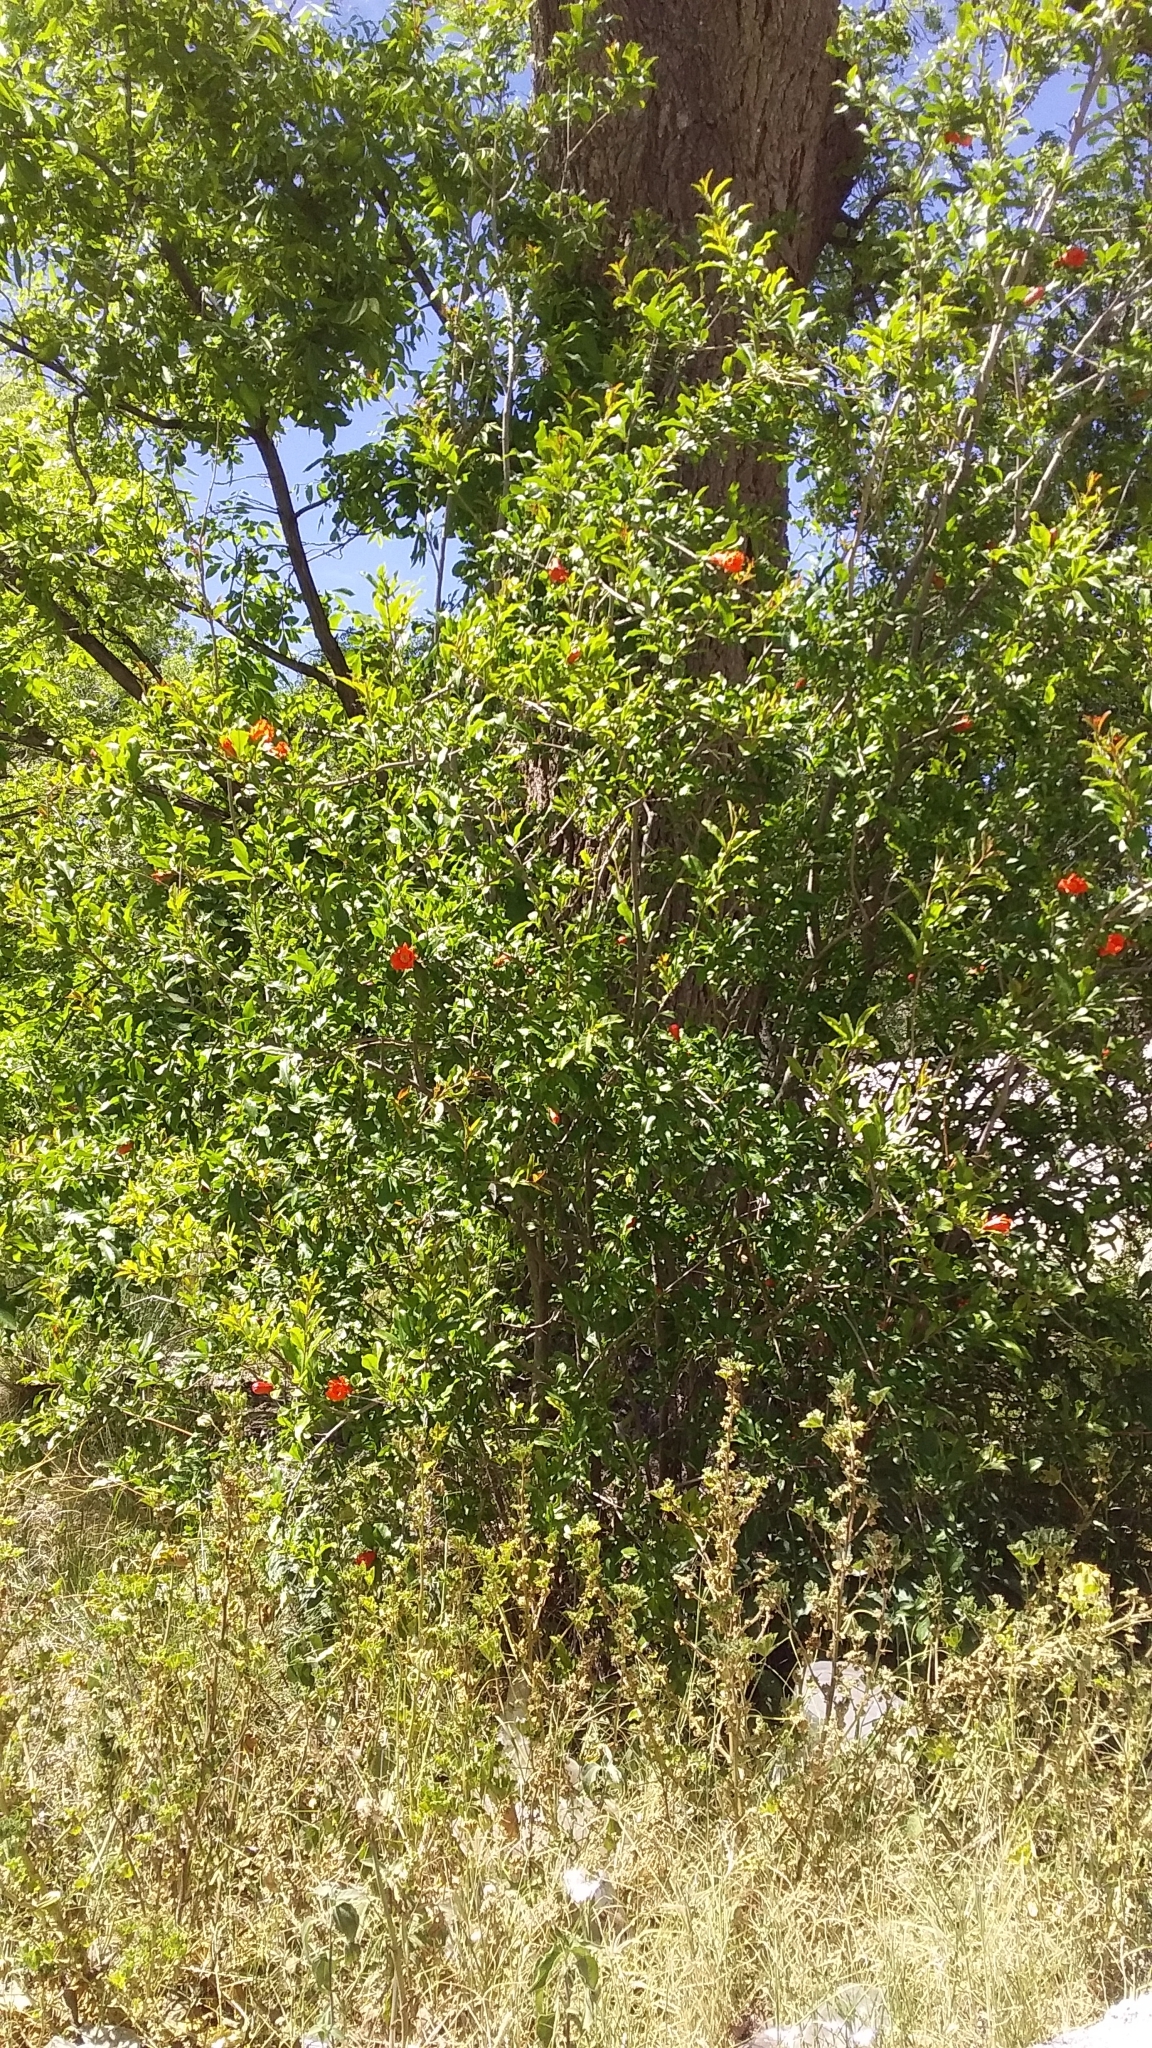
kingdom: Plantae
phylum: Tracheophyta
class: Magnoliopsida
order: Myrtales
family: Lythraceae
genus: Punica
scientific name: Punica granatum
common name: Pomegranate
